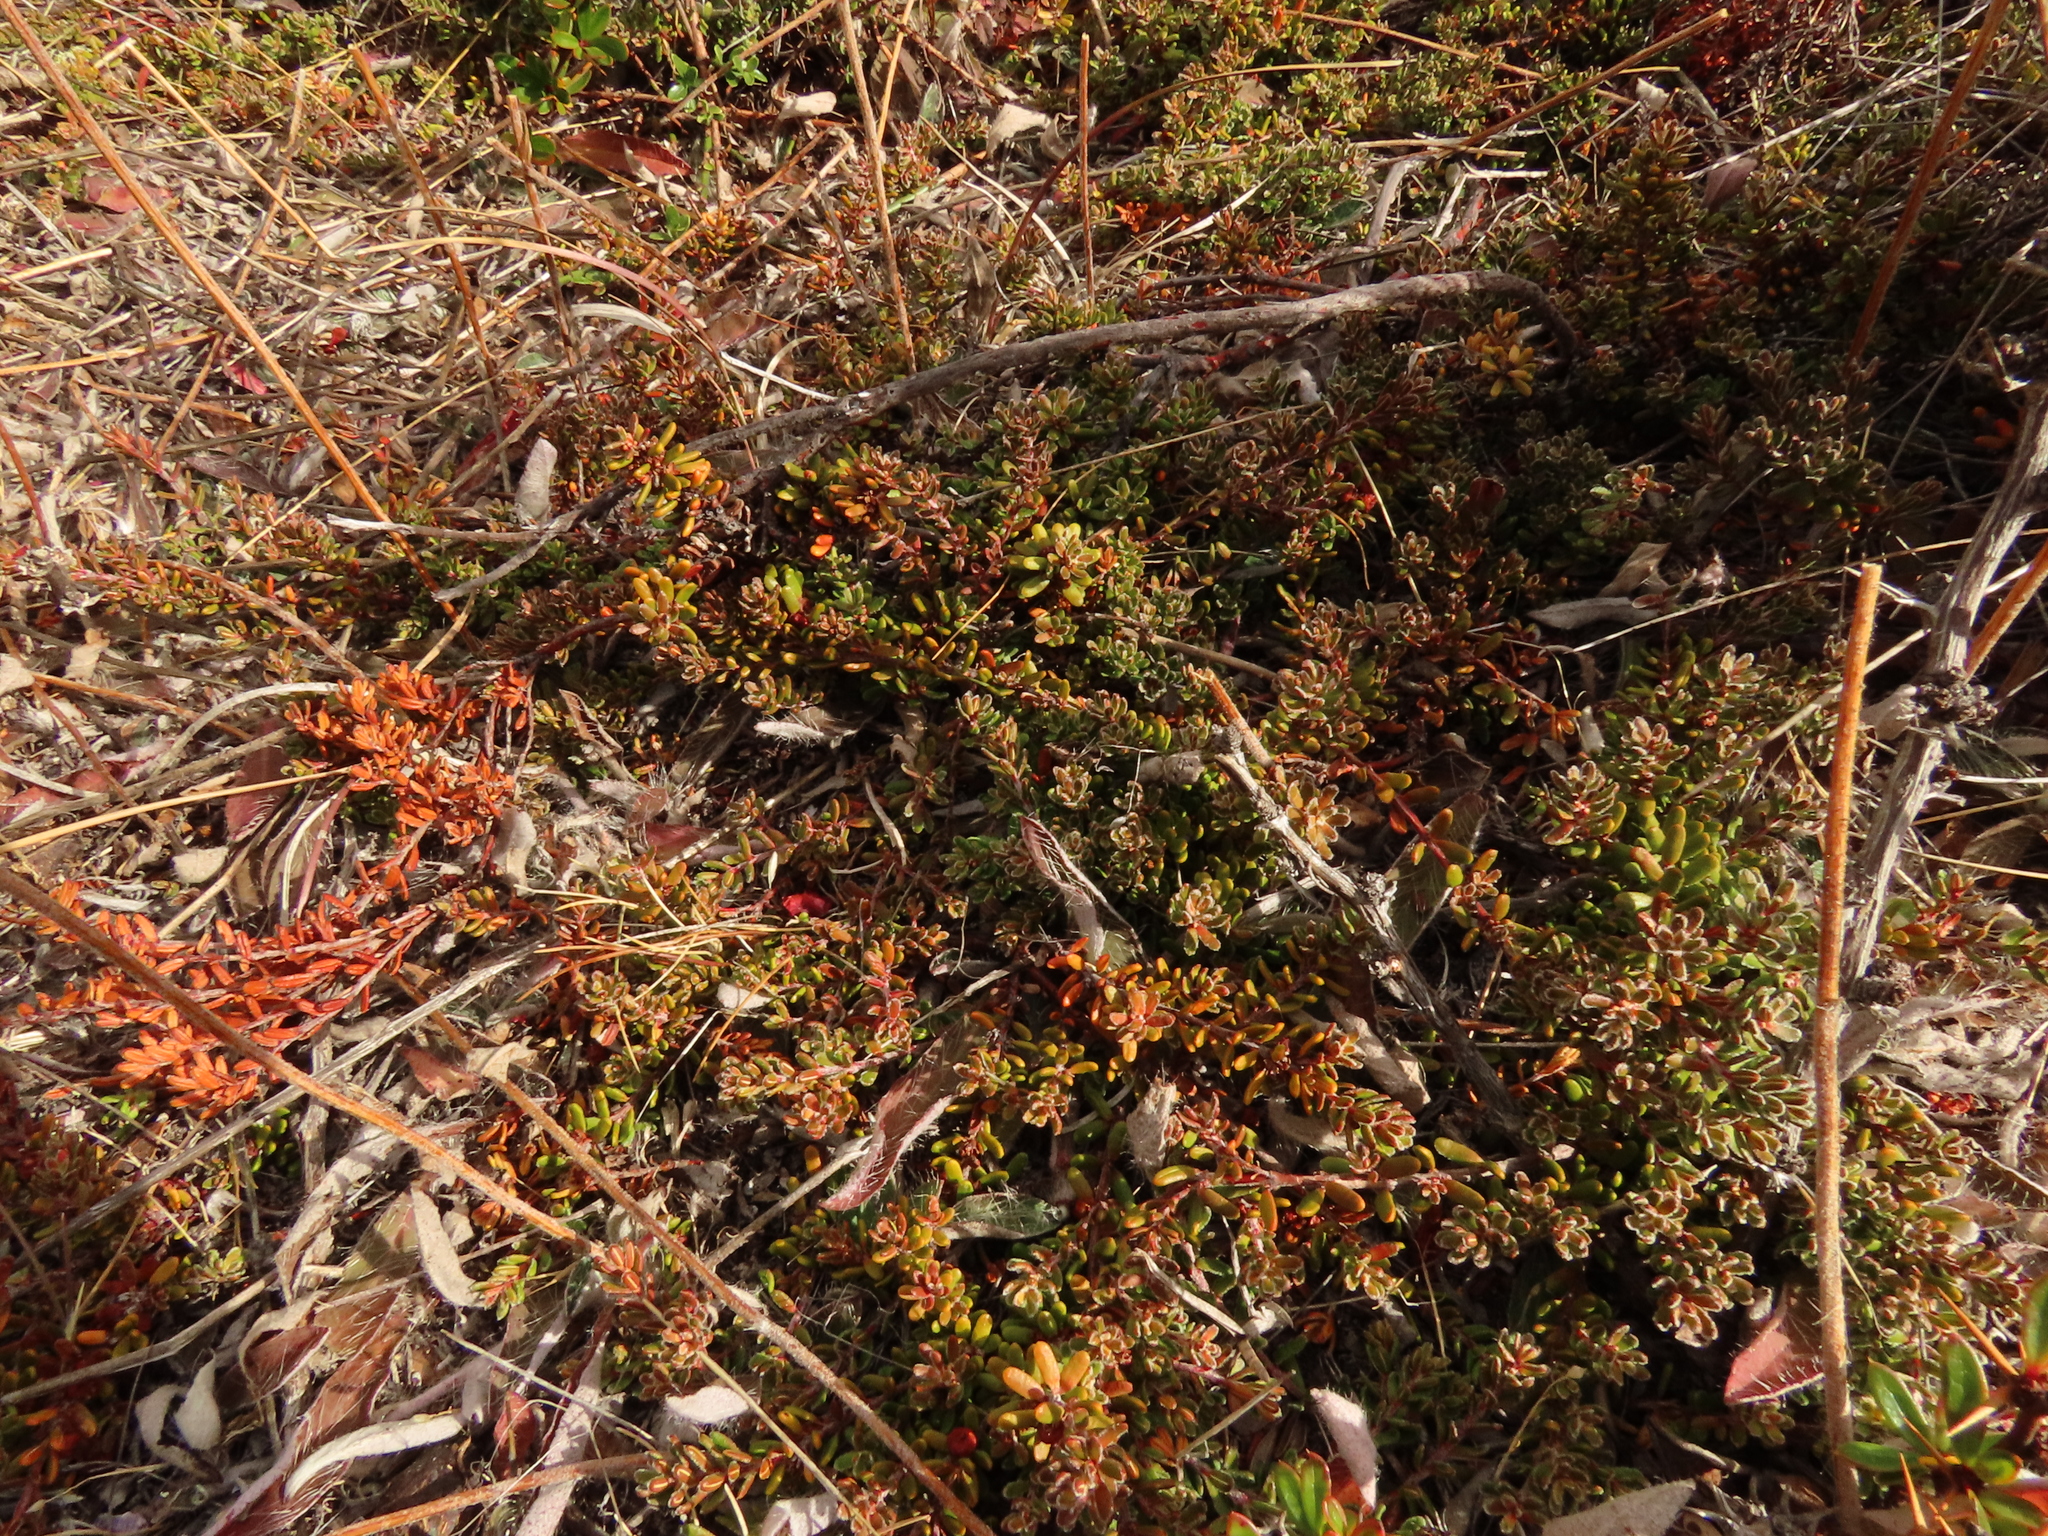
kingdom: Plantae
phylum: Tracheophyta
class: Magnoliopsida
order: Ericales
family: Ericaceae
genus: Empetrum
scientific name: Empetrum rubrum
